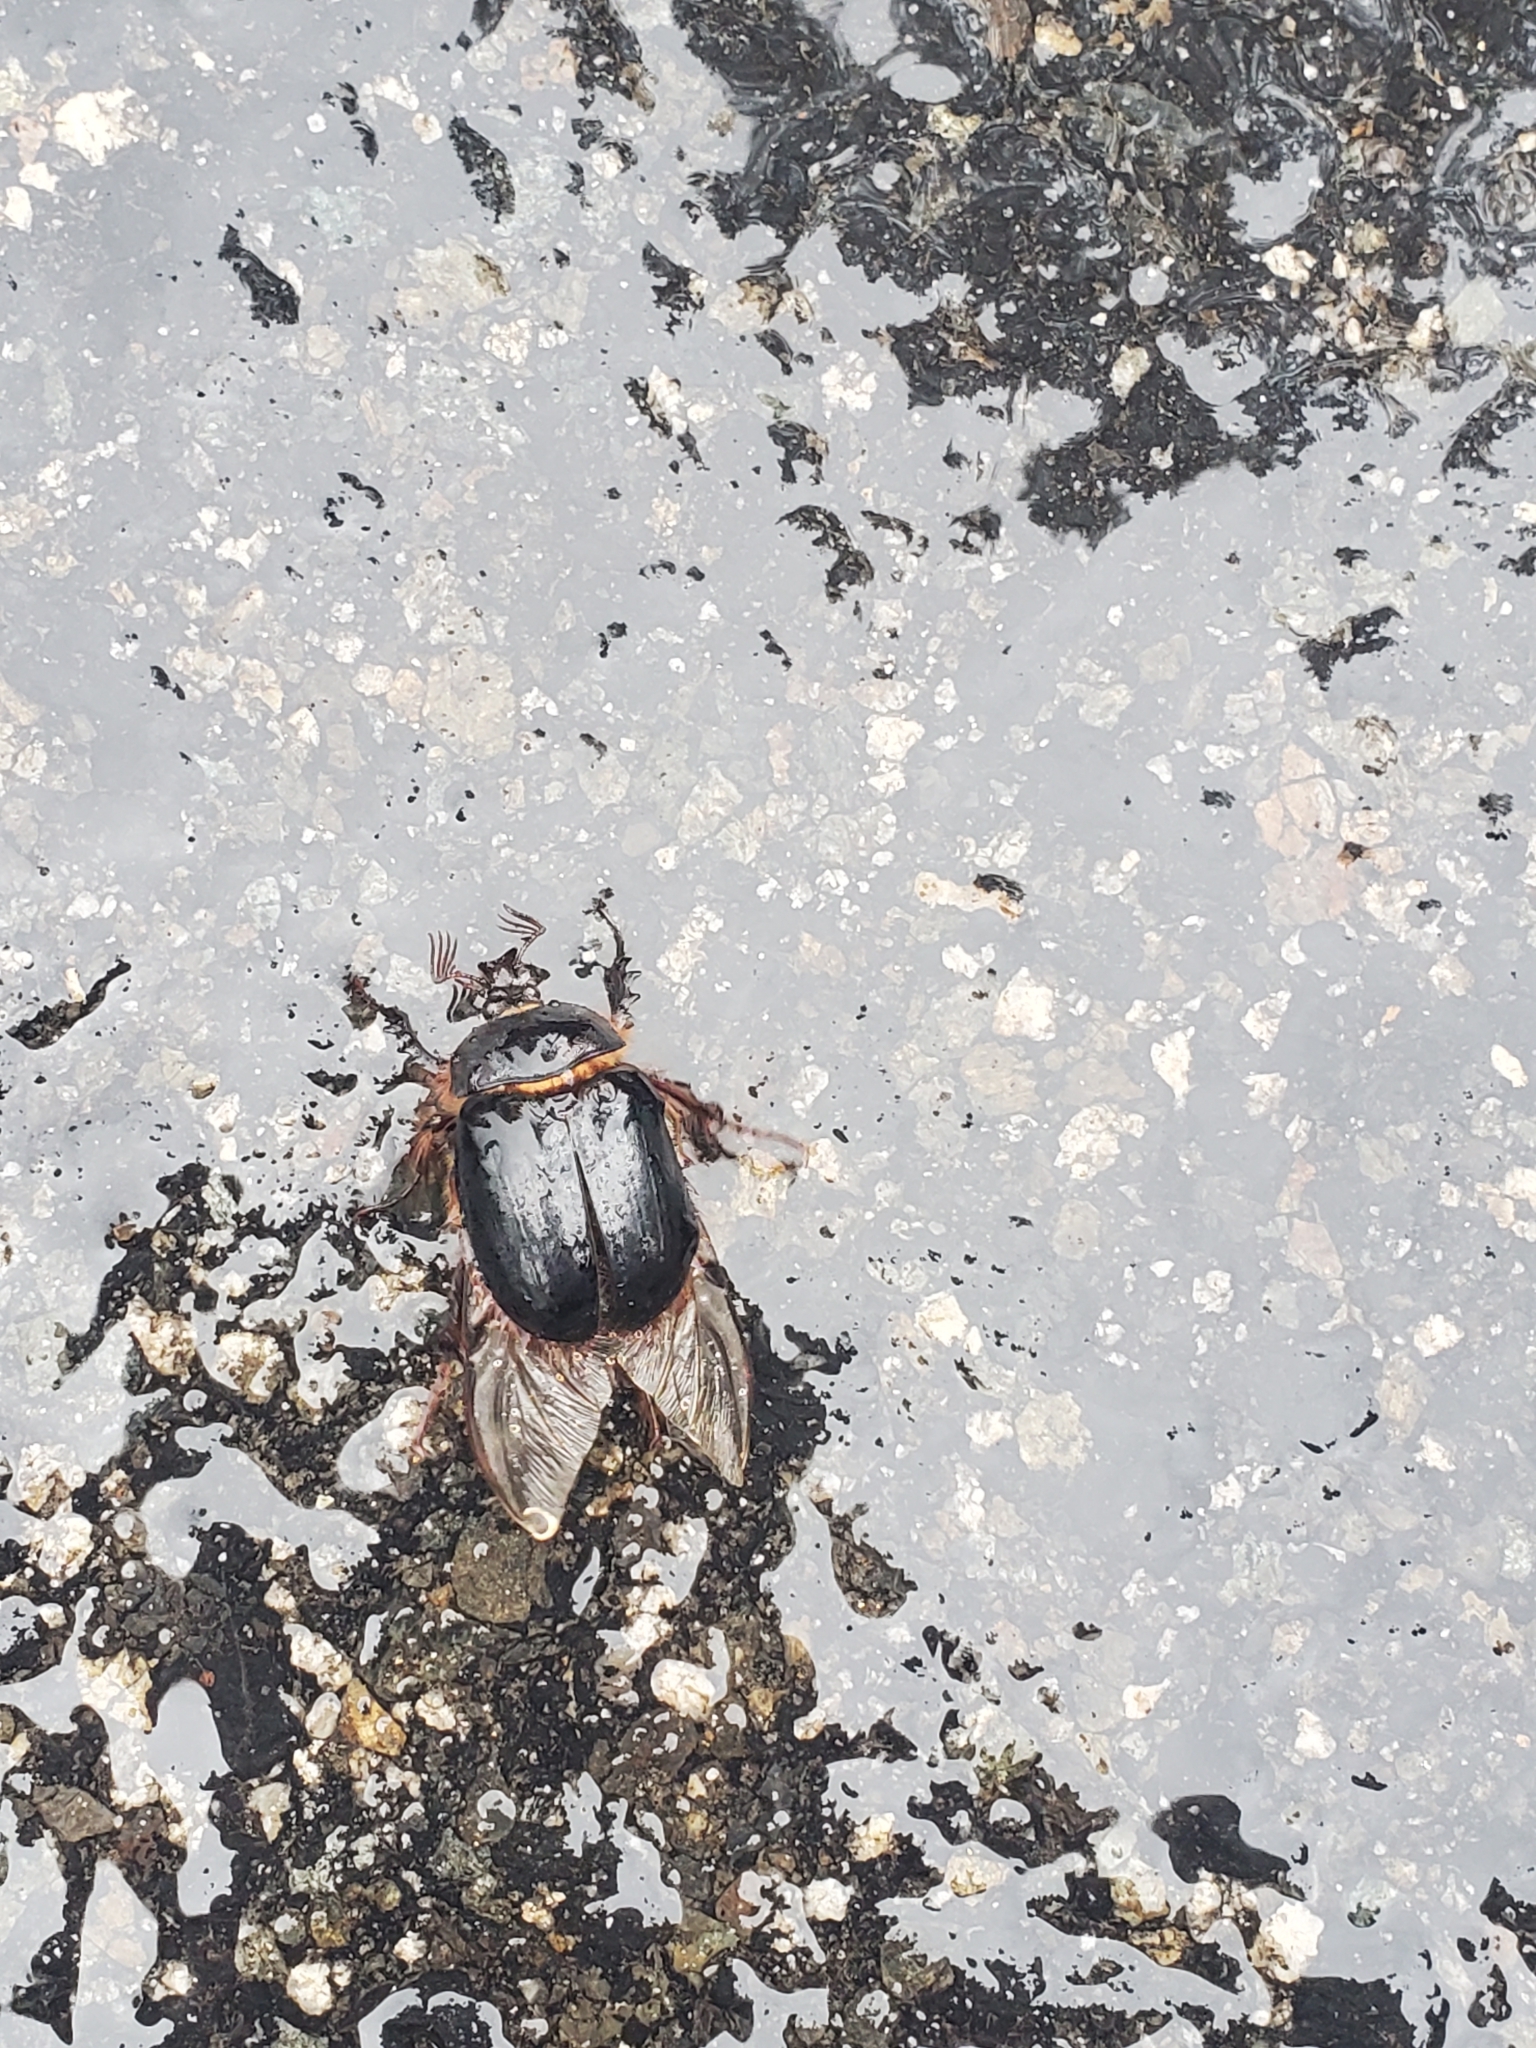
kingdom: Animalia
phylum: Arthropoda
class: Insecta
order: Coleoptera
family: Pleocomidae
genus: Pleocoma
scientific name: Pleocoma australis
